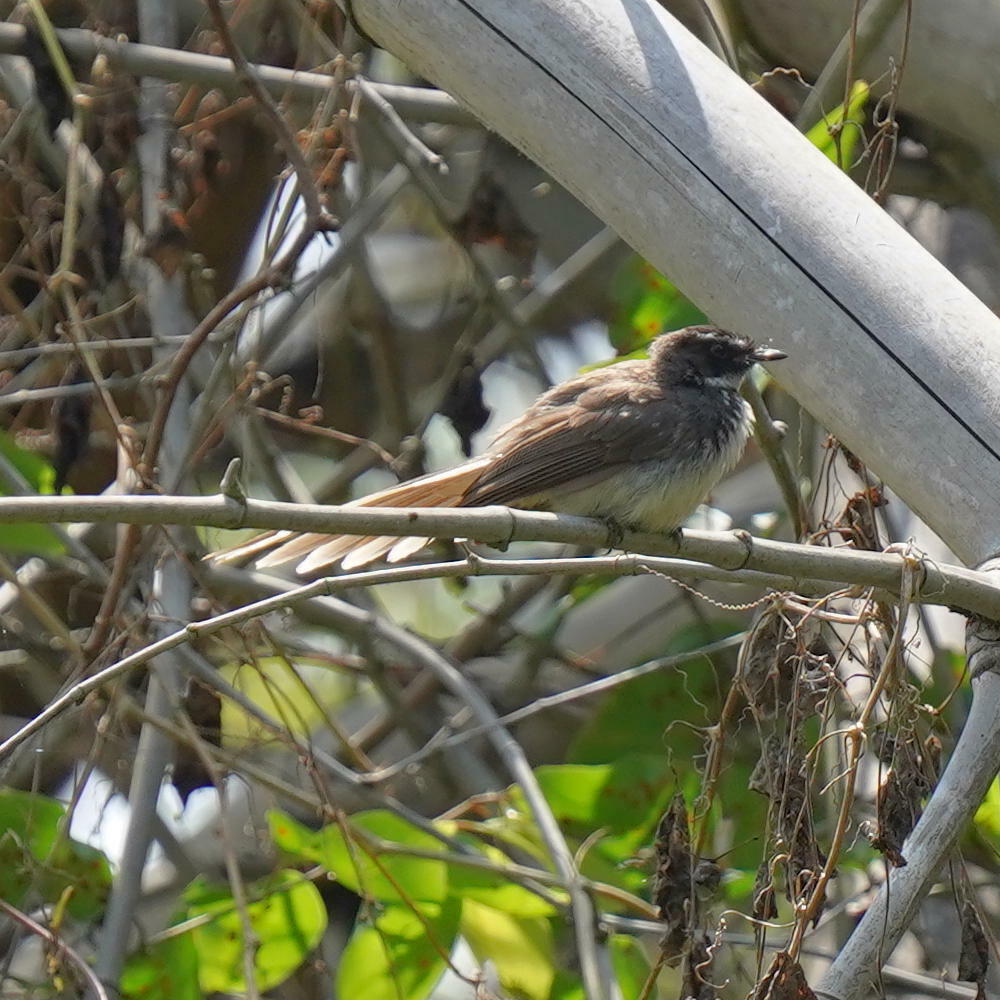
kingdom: Animalia
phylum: Chordata
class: Aves
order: Passeriformes
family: Rhipiduridae
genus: Rhipidura
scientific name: Rhipidura albogularis
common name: White-spotted fantail
